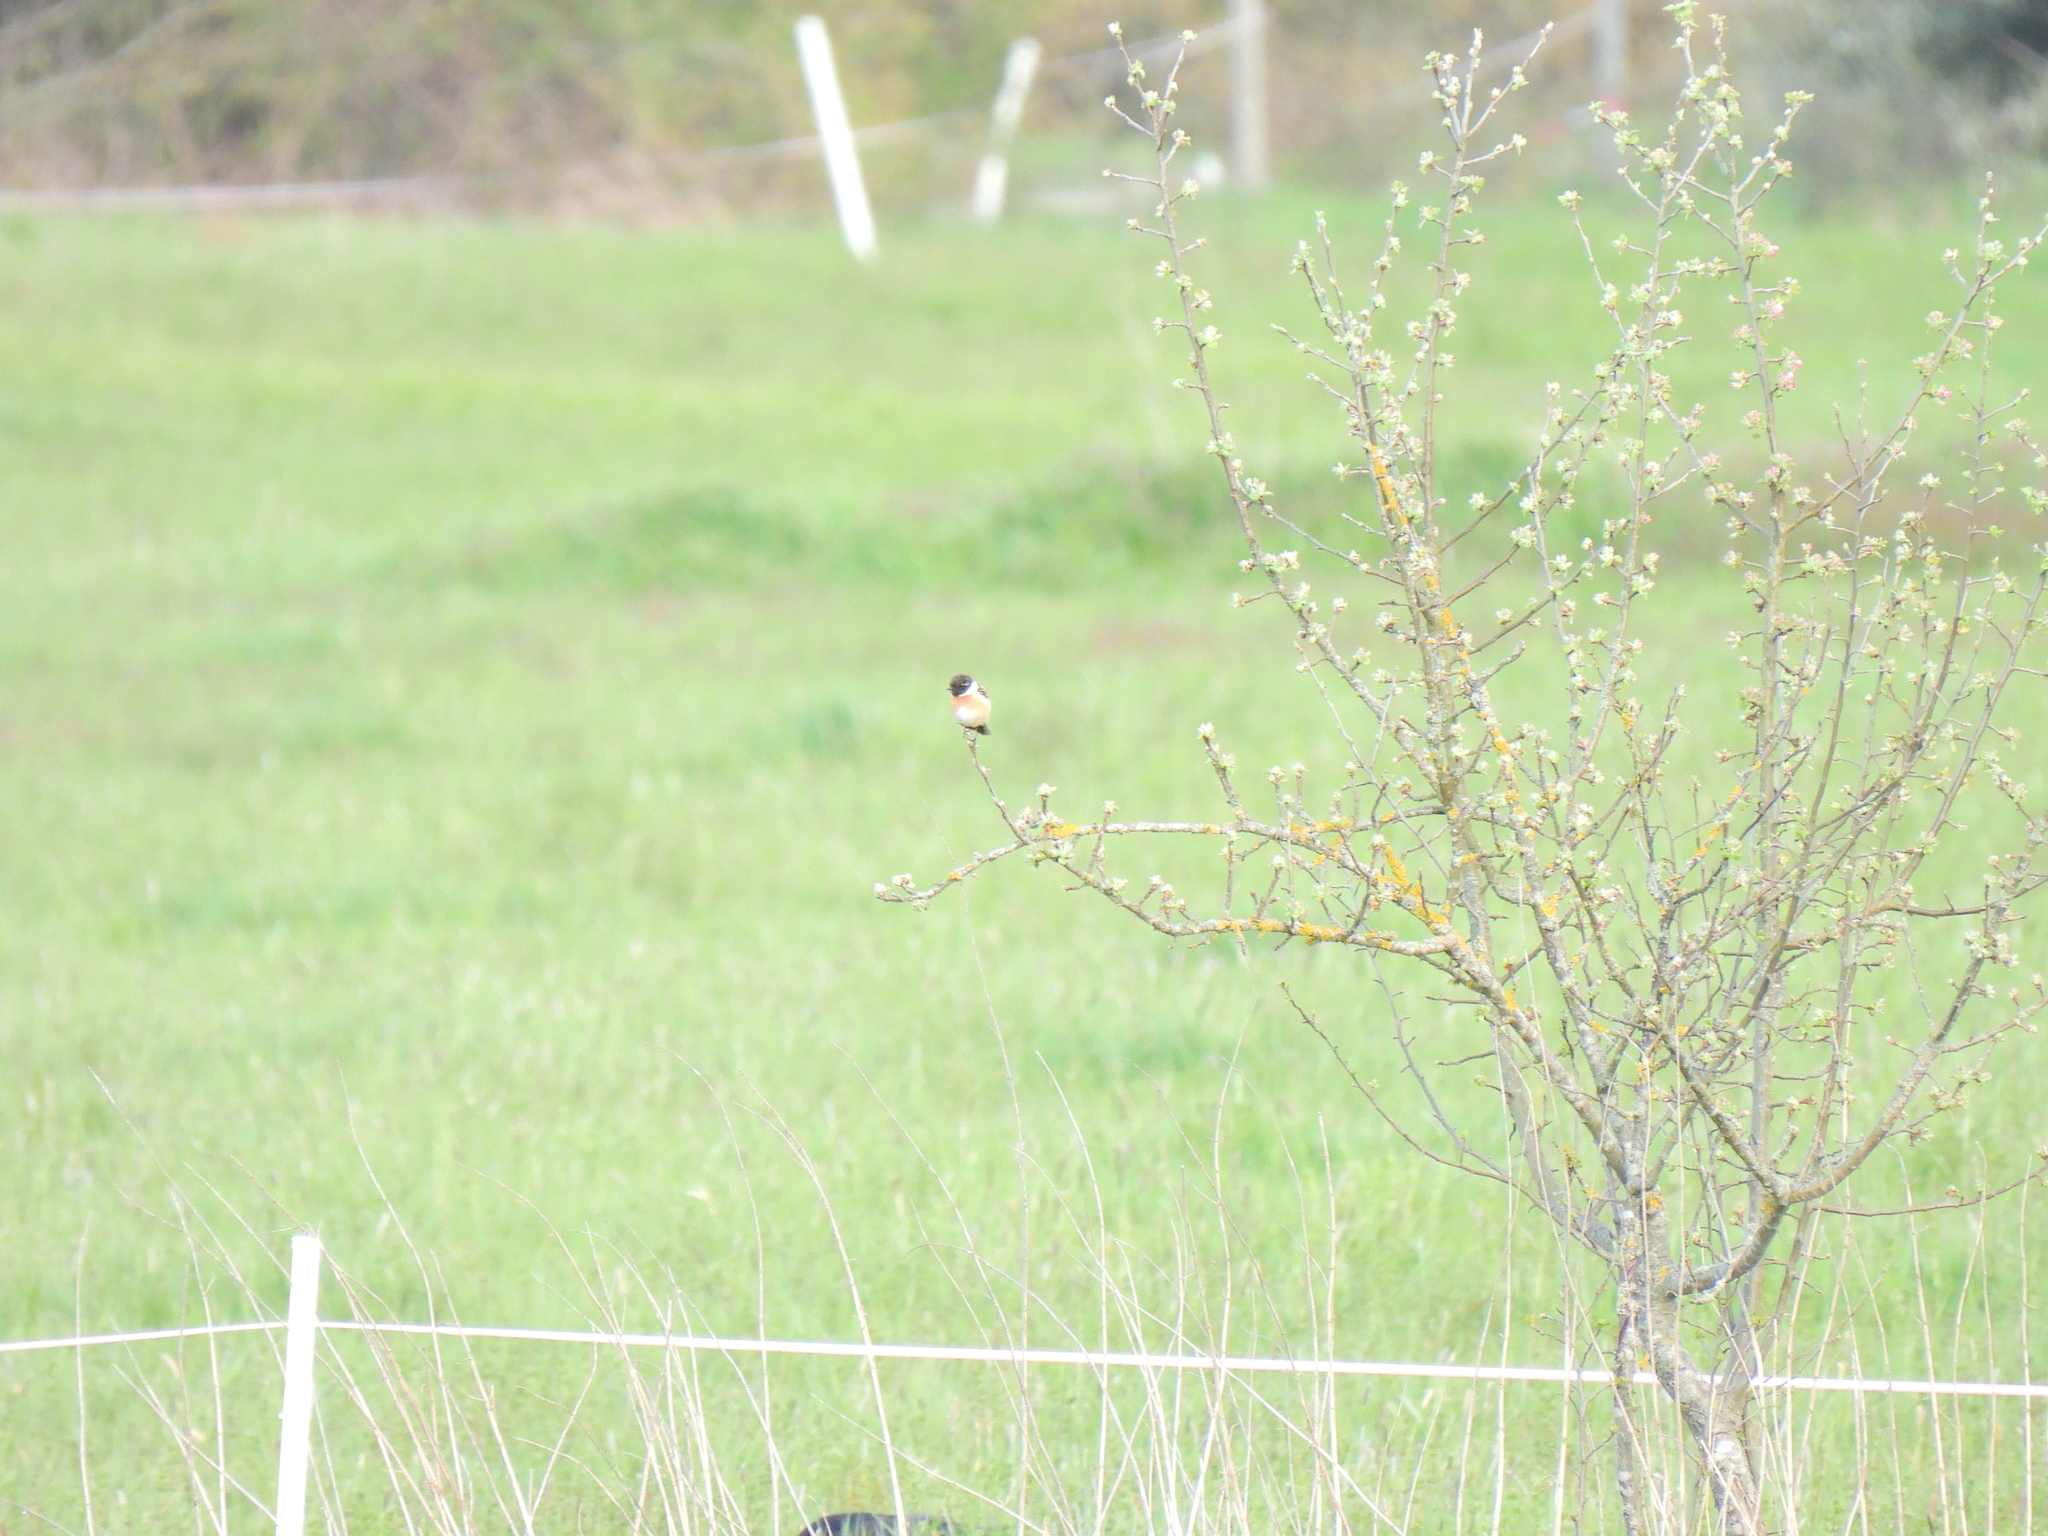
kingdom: Animalia
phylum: Chordata
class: Aves
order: Passeriformes
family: Muscicapidae
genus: Saxicola
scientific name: Saxicola rubicola
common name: European stonechat
